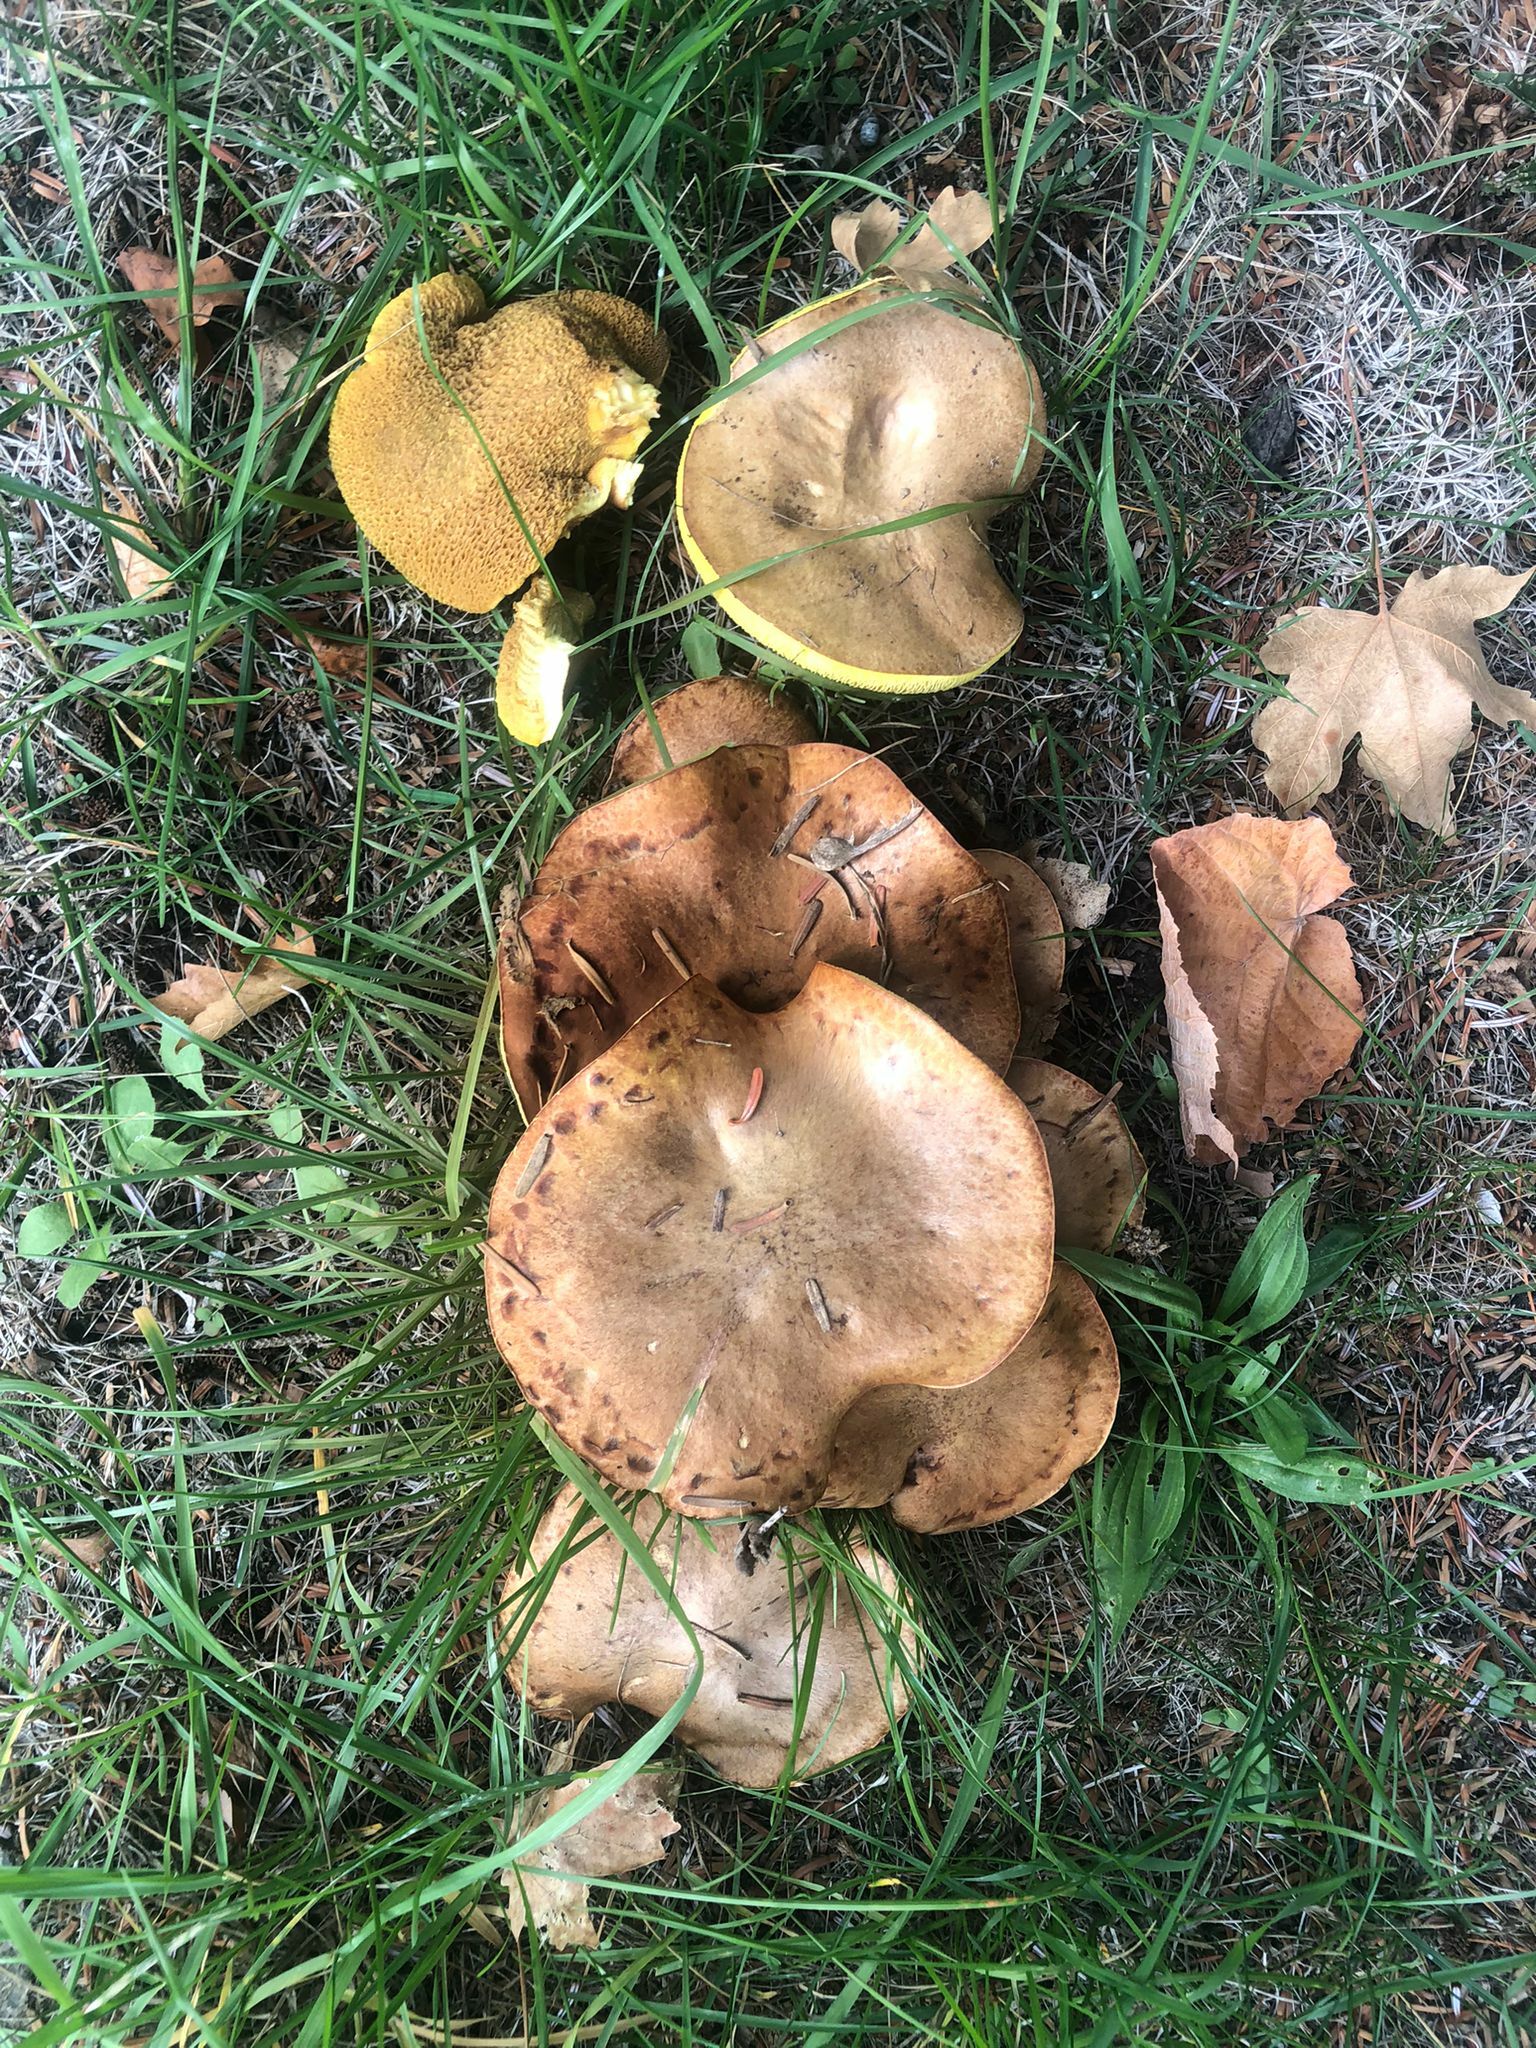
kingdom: Fungi
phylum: Basidiomycota
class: Agaricomycetes
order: Boletales
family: Suillaceae
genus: Suillus
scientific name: Suillus collinitus
